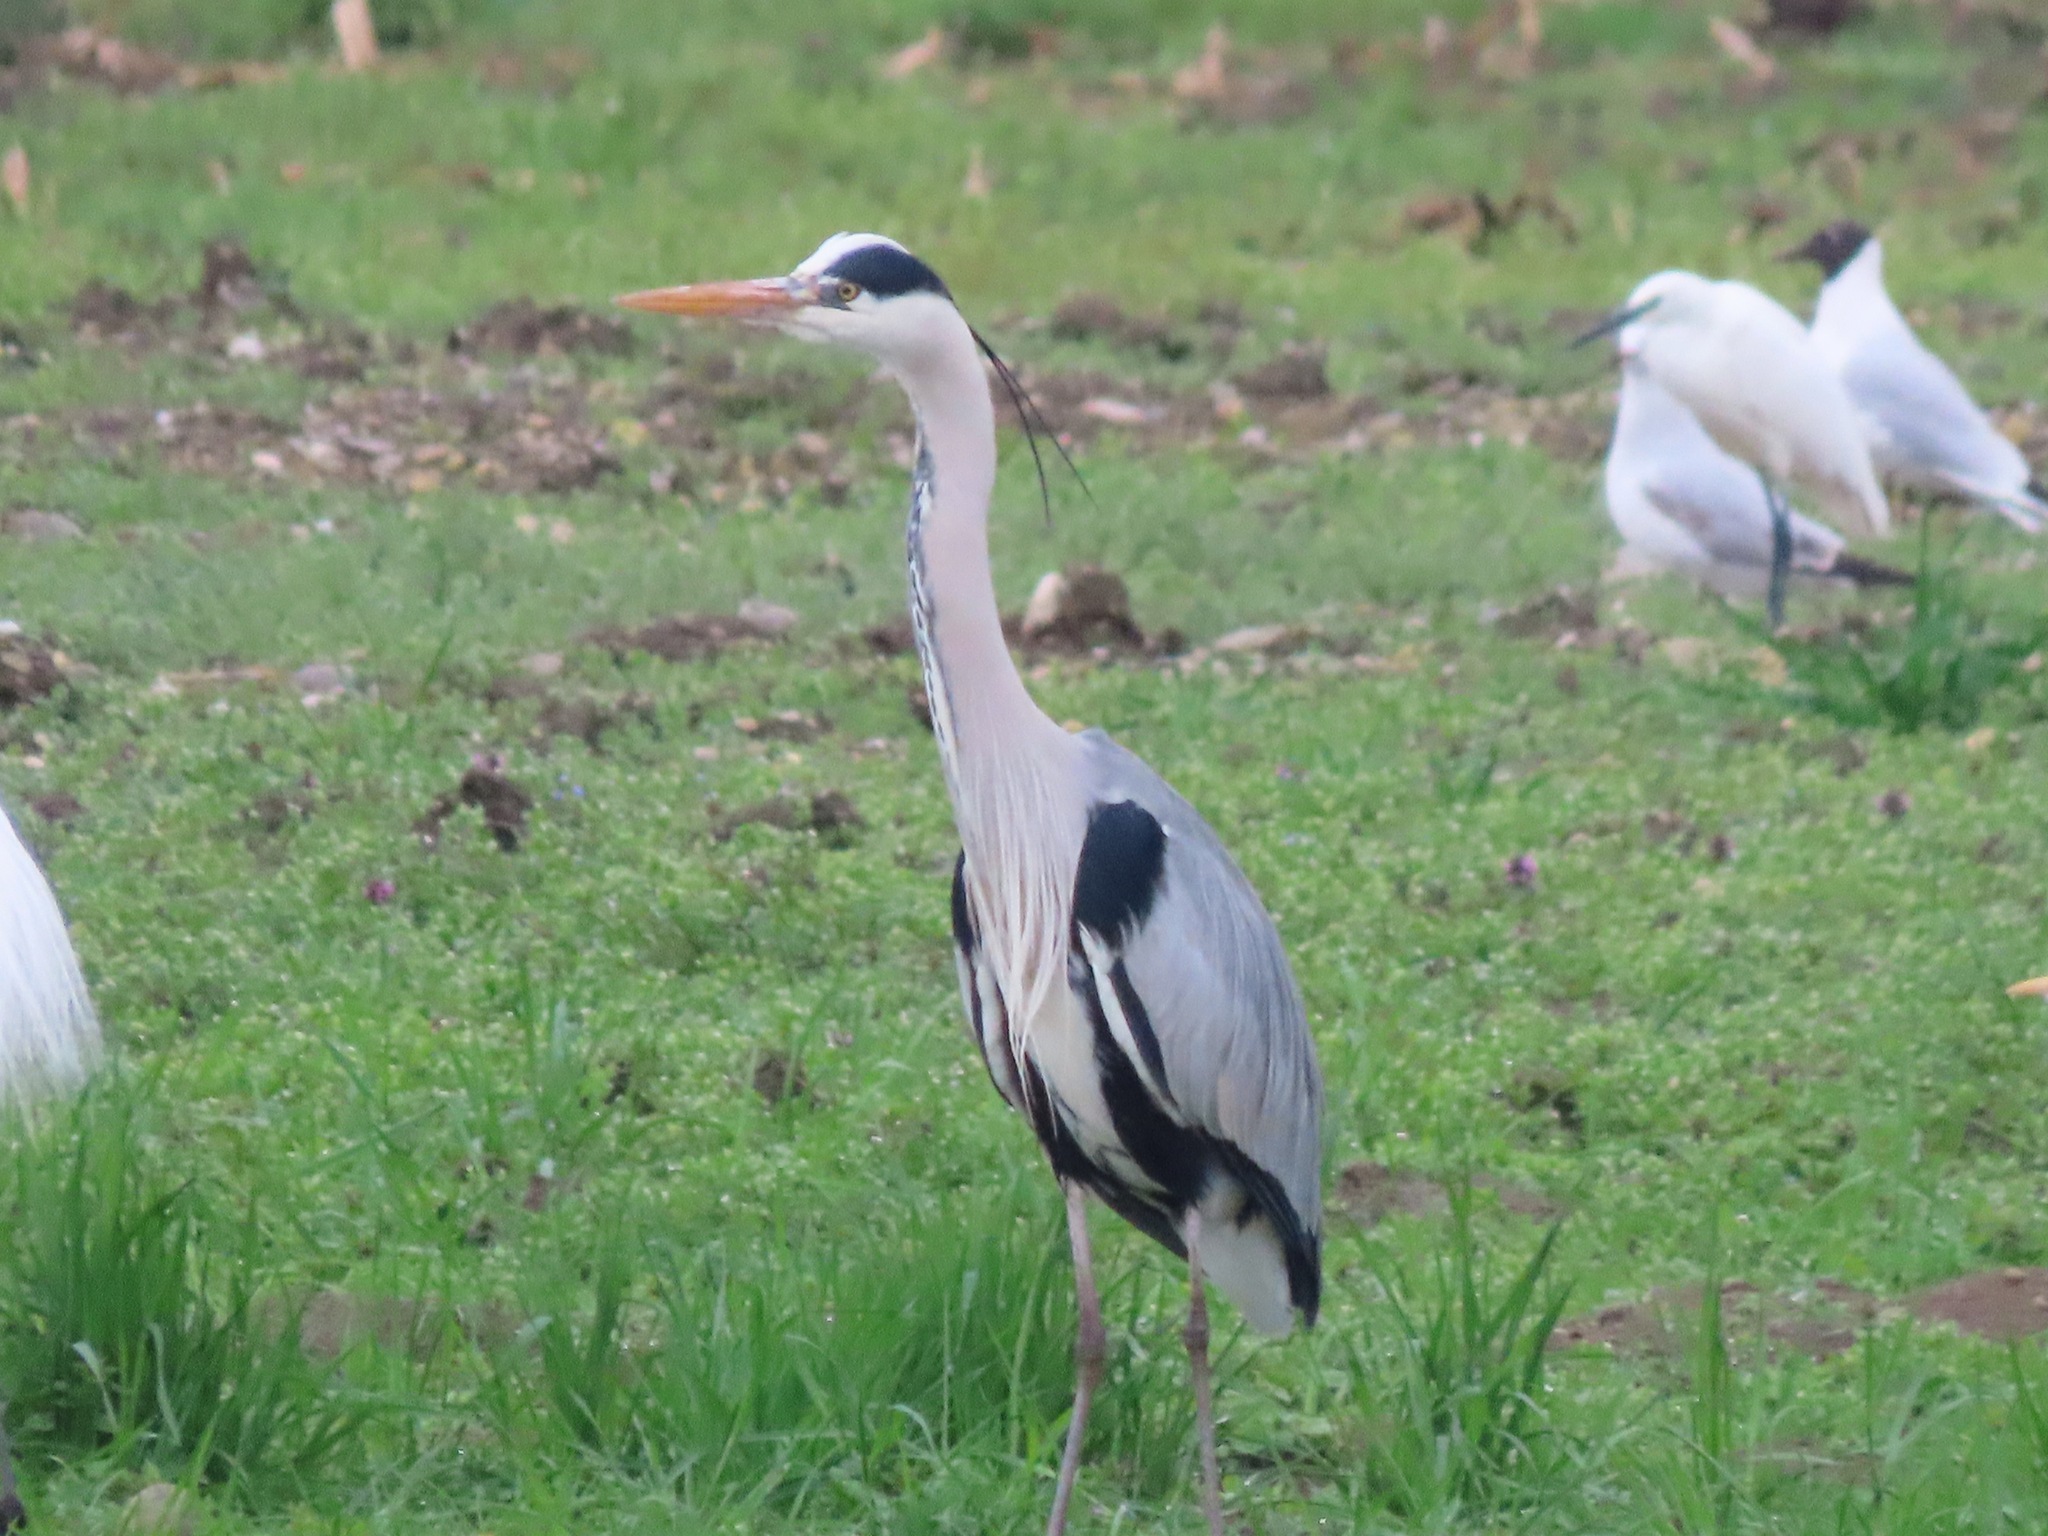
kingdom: Animalia
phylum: Chordata
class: Aves
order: Pelecaniformes
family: Ardeidae
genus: Ardea
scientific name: Ardea cinerea
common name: Grey heron
